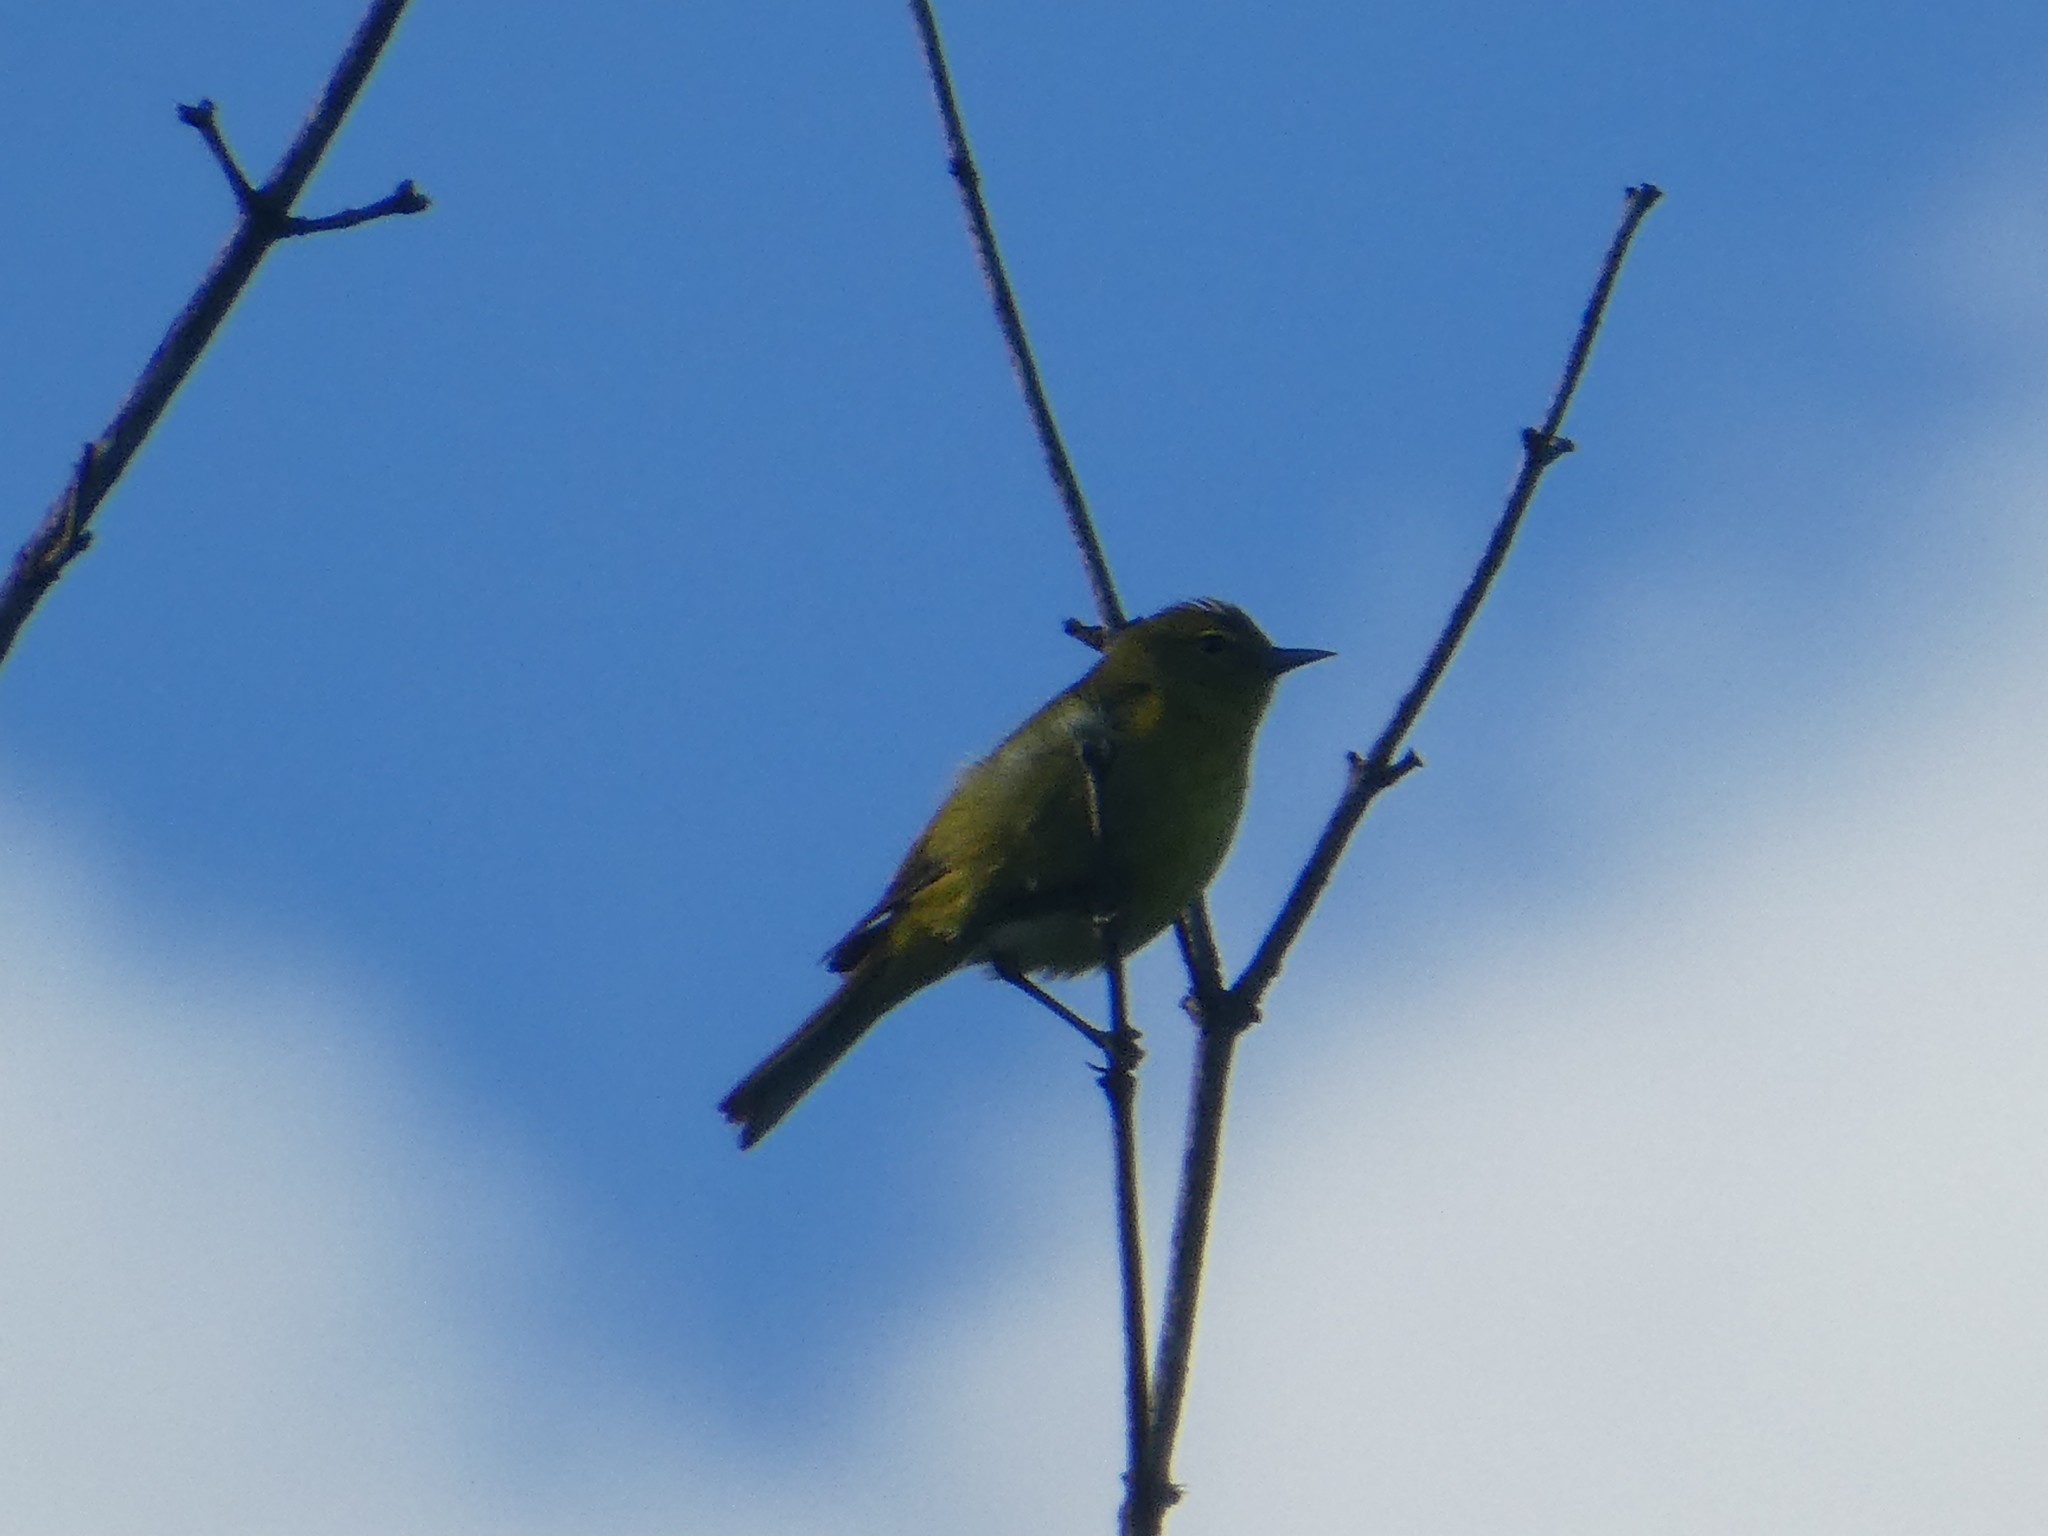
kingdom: Animalia
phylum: Chordata
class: Aves
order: Passeriformes
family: Parulidae
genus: Leiothlypis
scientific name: Leiothlypis celata
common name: Orange-crowned warbler
